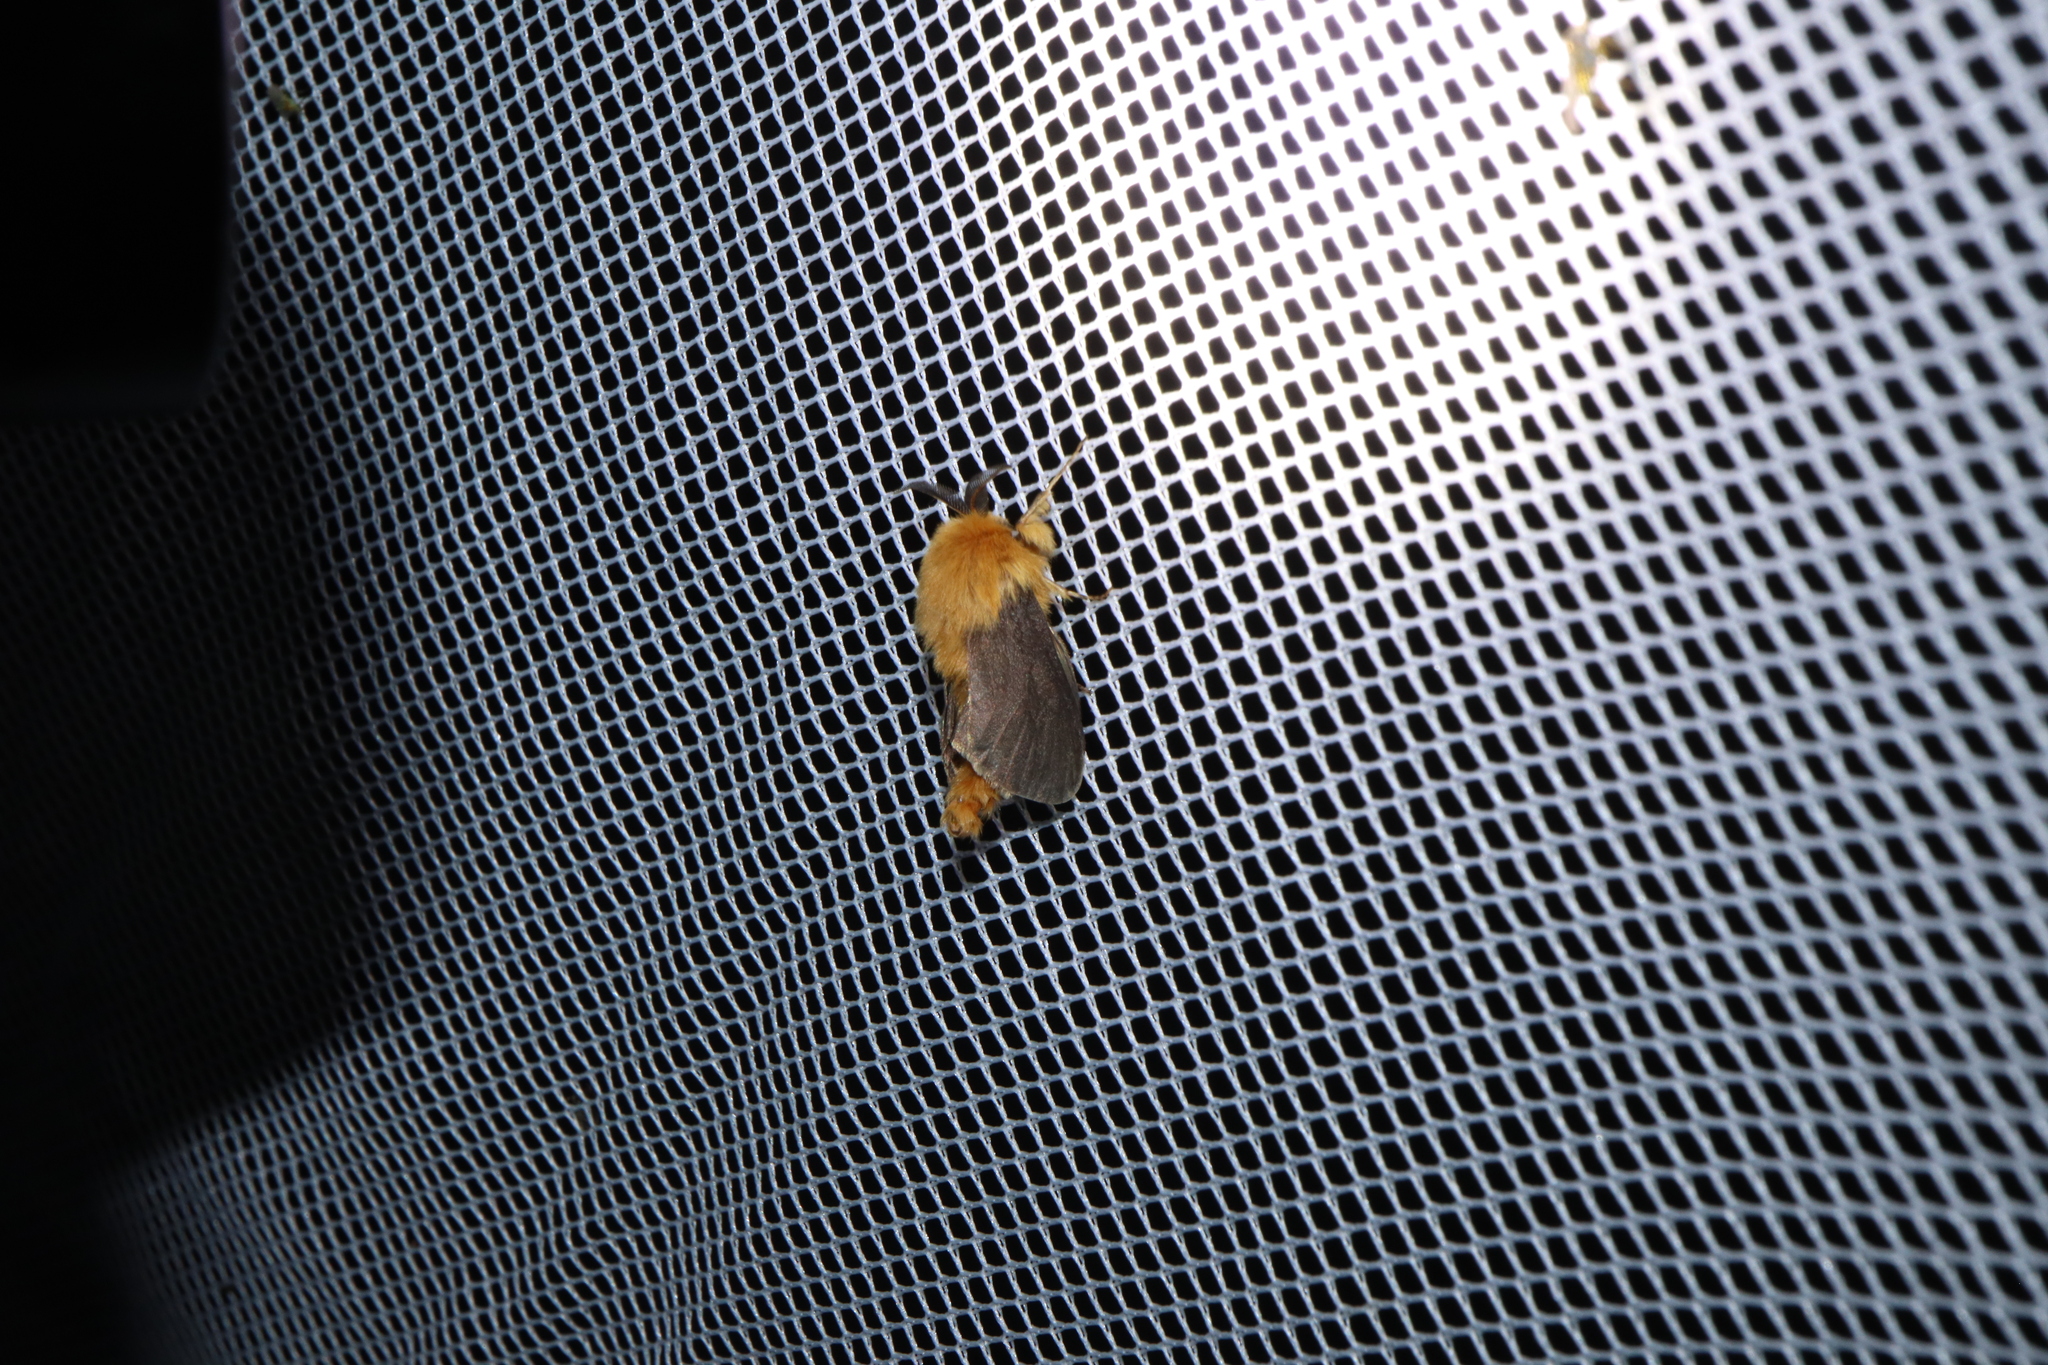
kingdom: Animalia
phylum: Arthropoda
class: Insecta
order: Lepidoptera
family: Psychidae
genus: Lomera
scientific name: Lomera
